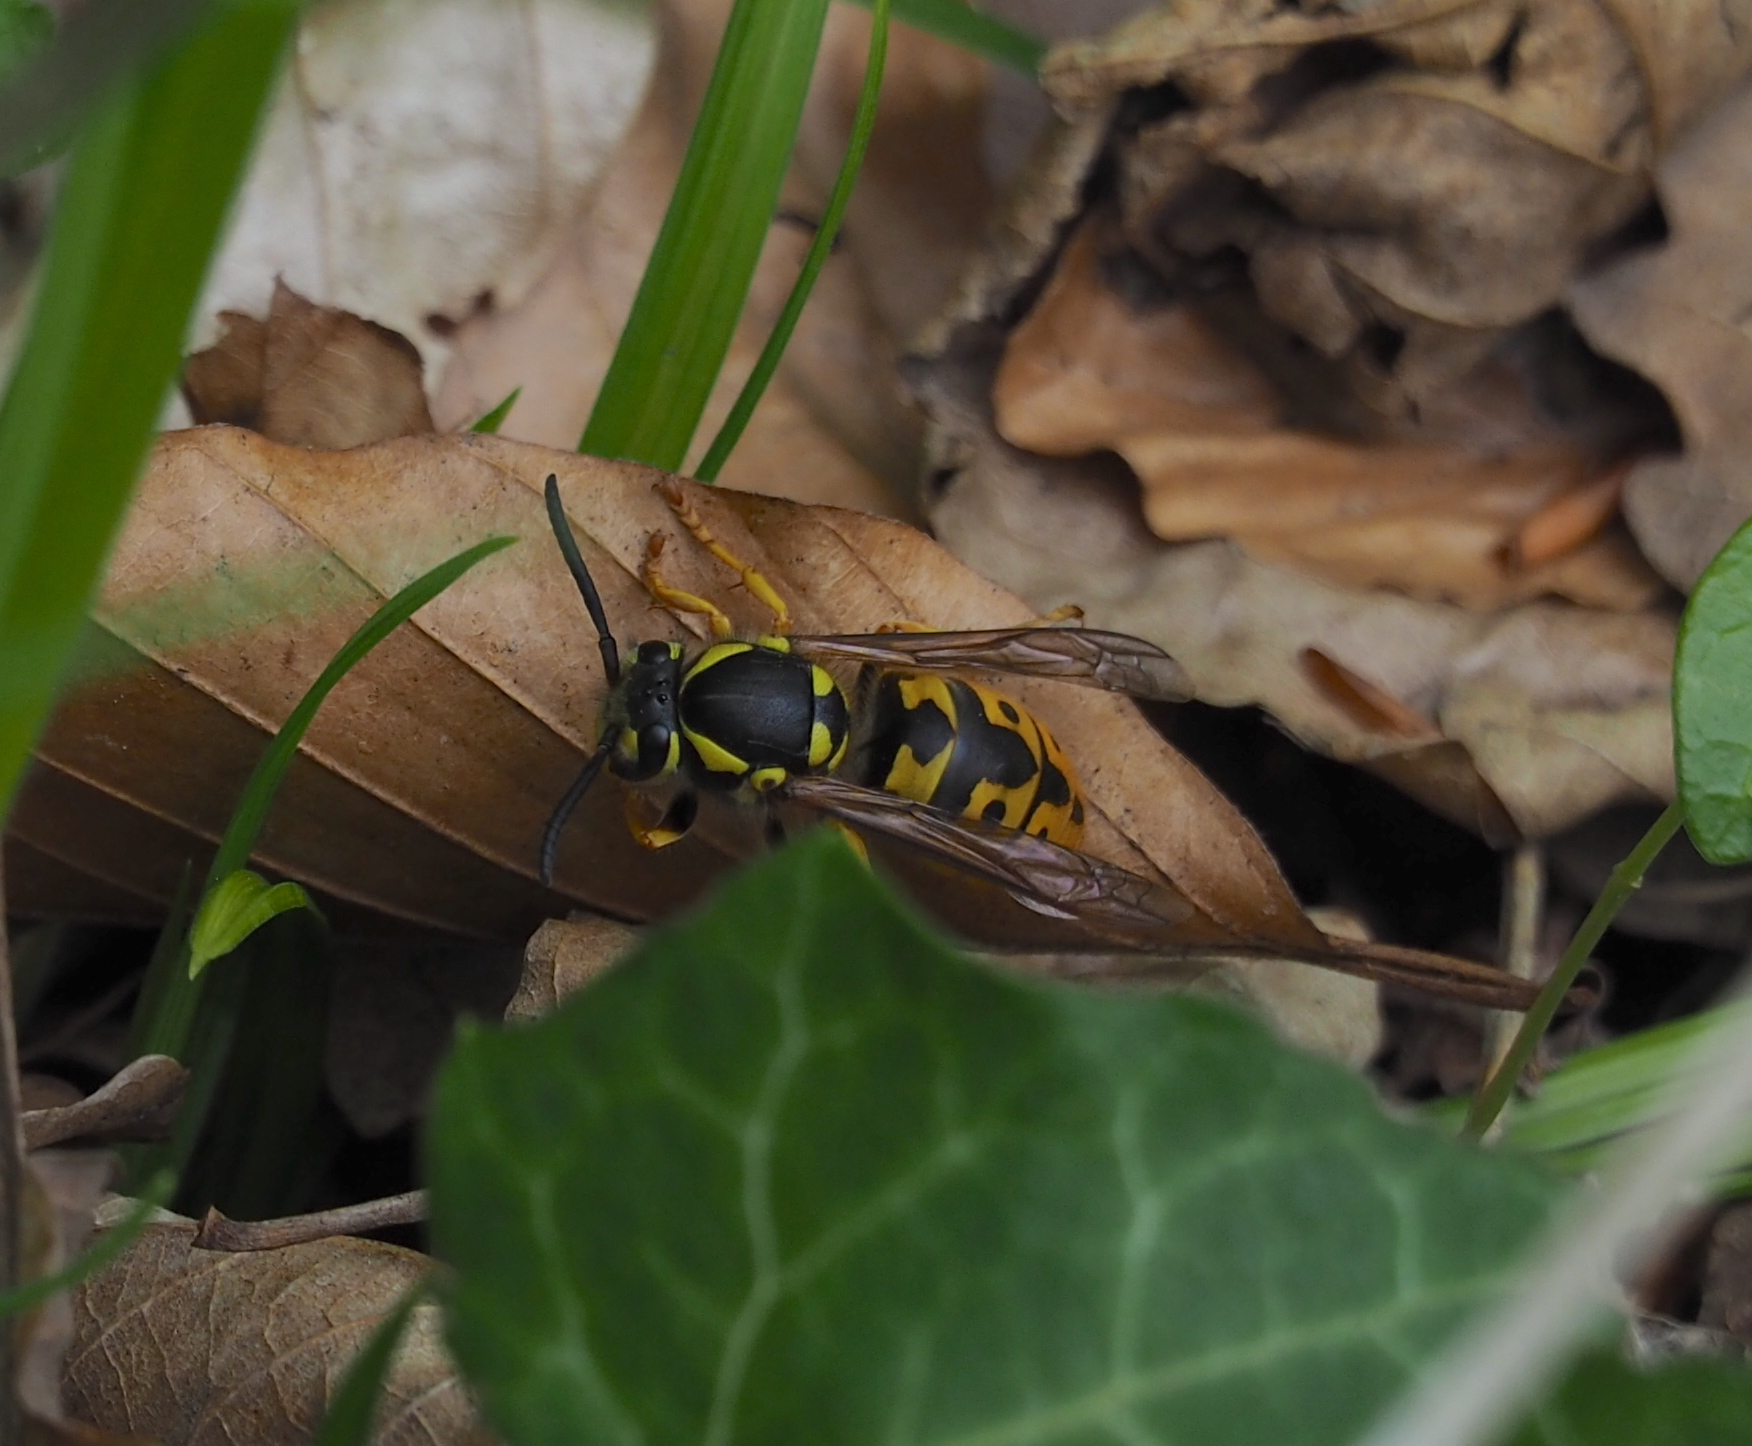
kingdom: Animalia
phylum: Arthropoda
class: Insecta
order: Hymenoptera
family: Vespidae
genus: Vespula
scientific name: Vespula germanica
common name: German wasp
